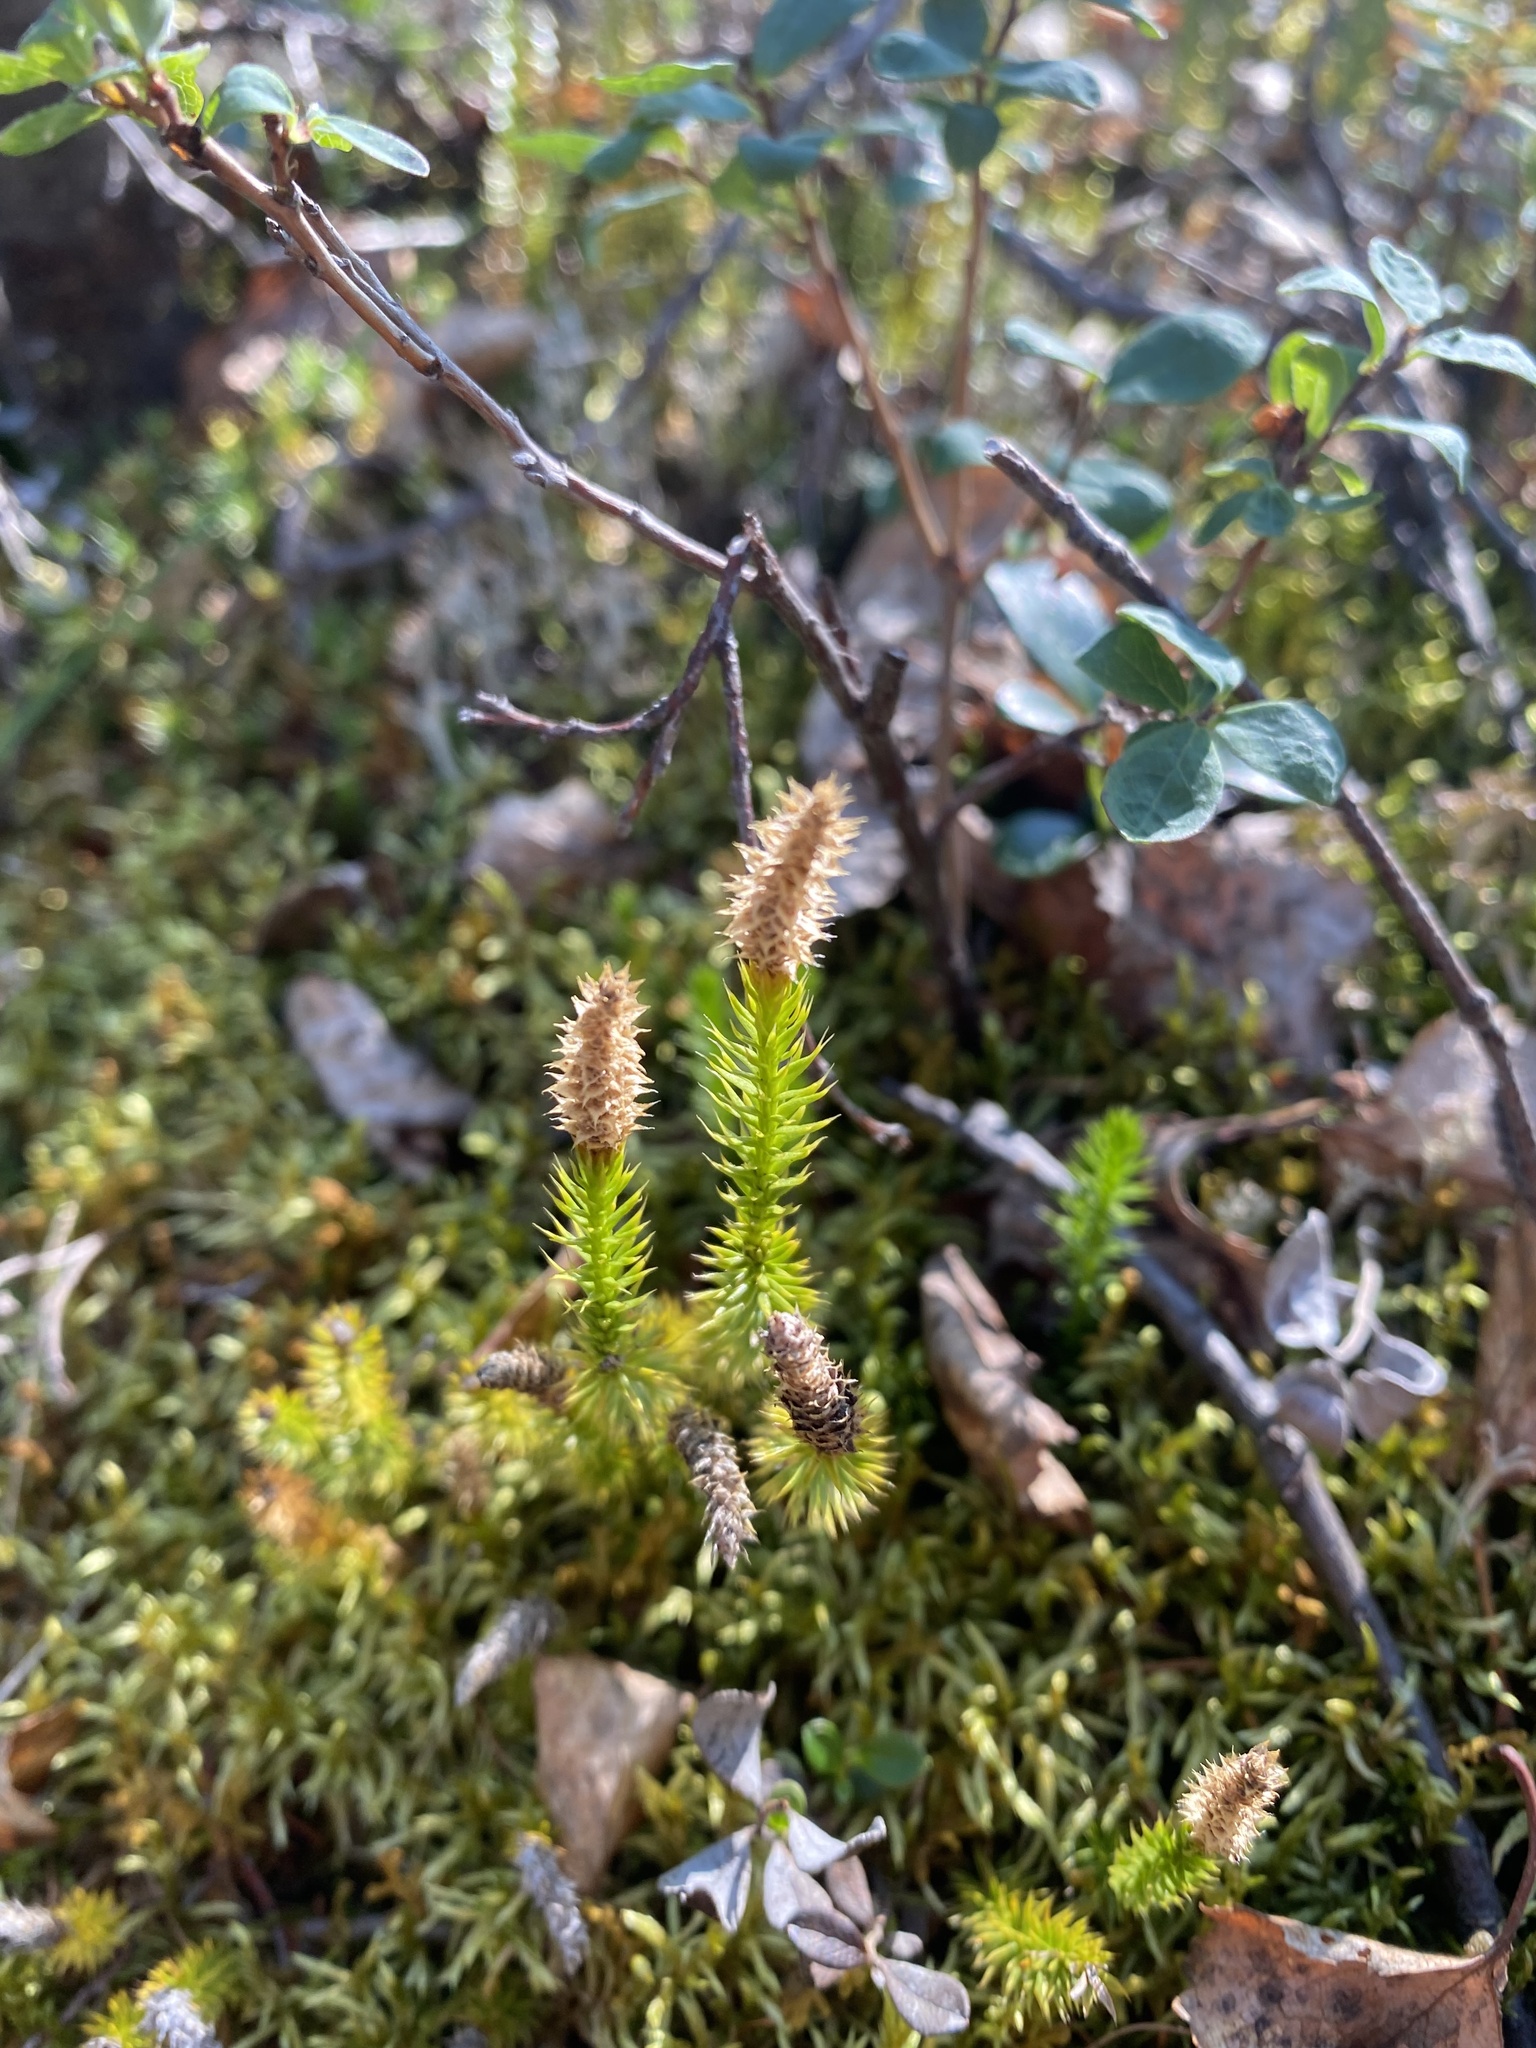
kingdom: Plantae
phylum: Tracheophyta
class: Lycopodiopsida
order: Lycopodiales
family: Lycopodiaceae
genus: Spinulum
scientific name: Spinulum annotinum
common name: Interrupted club-moss
